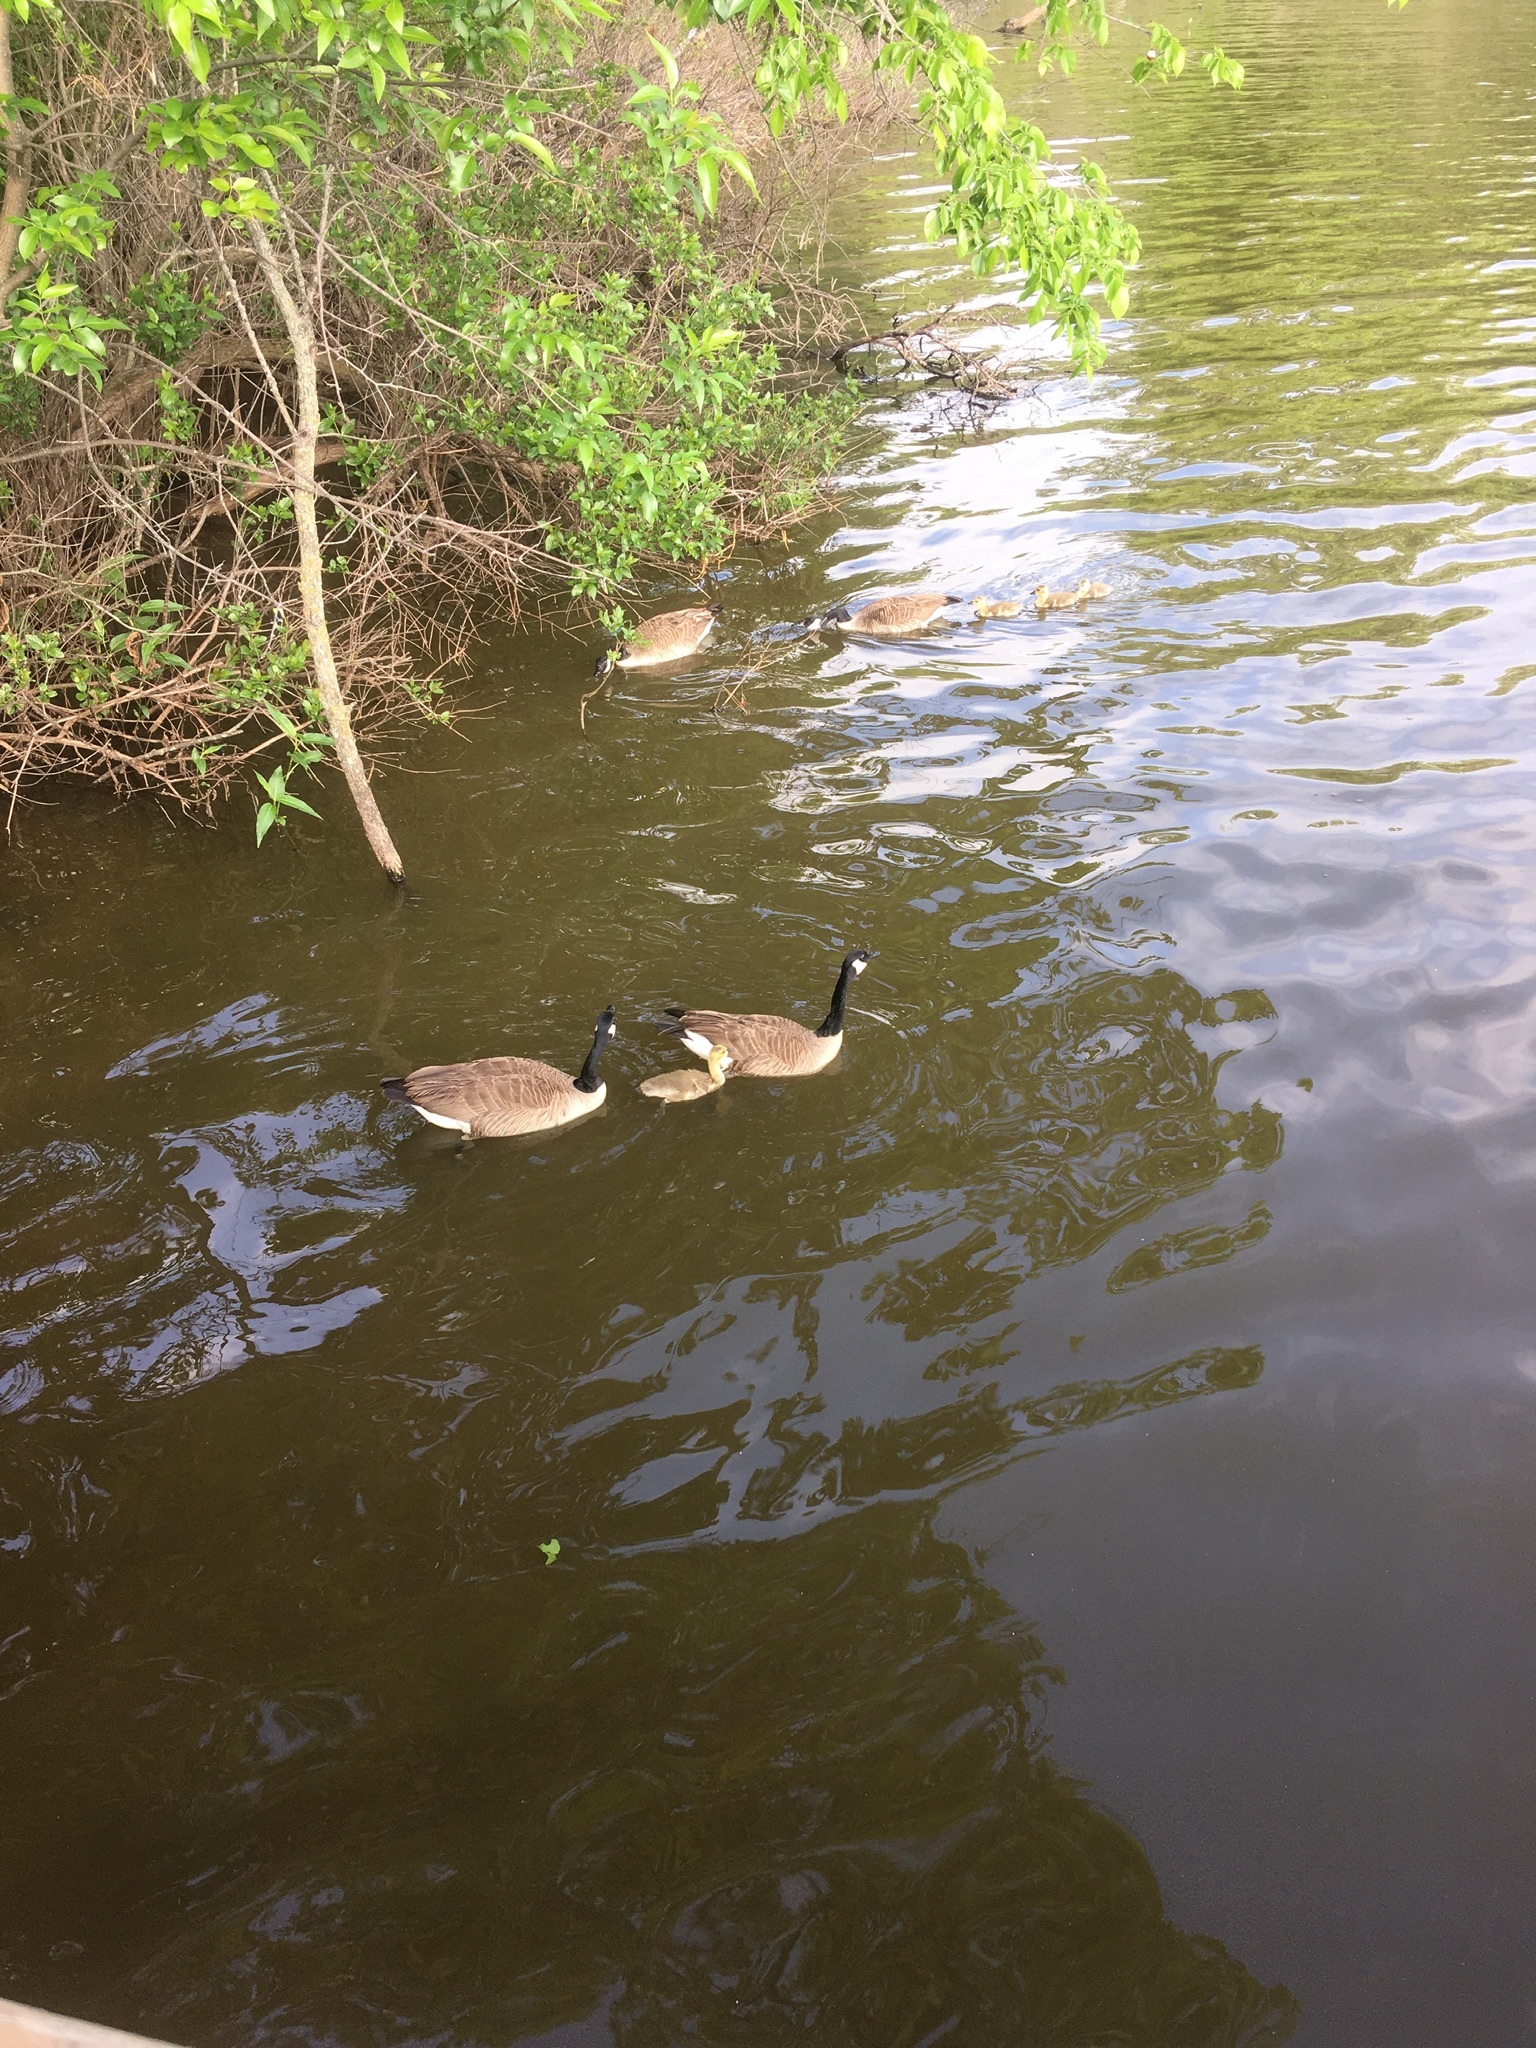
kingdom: Animalia
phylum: Chordata
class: Aves
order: Anseriformes
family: Anatidae
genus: Branta
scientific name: Branta canadensis
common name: Canada goose
